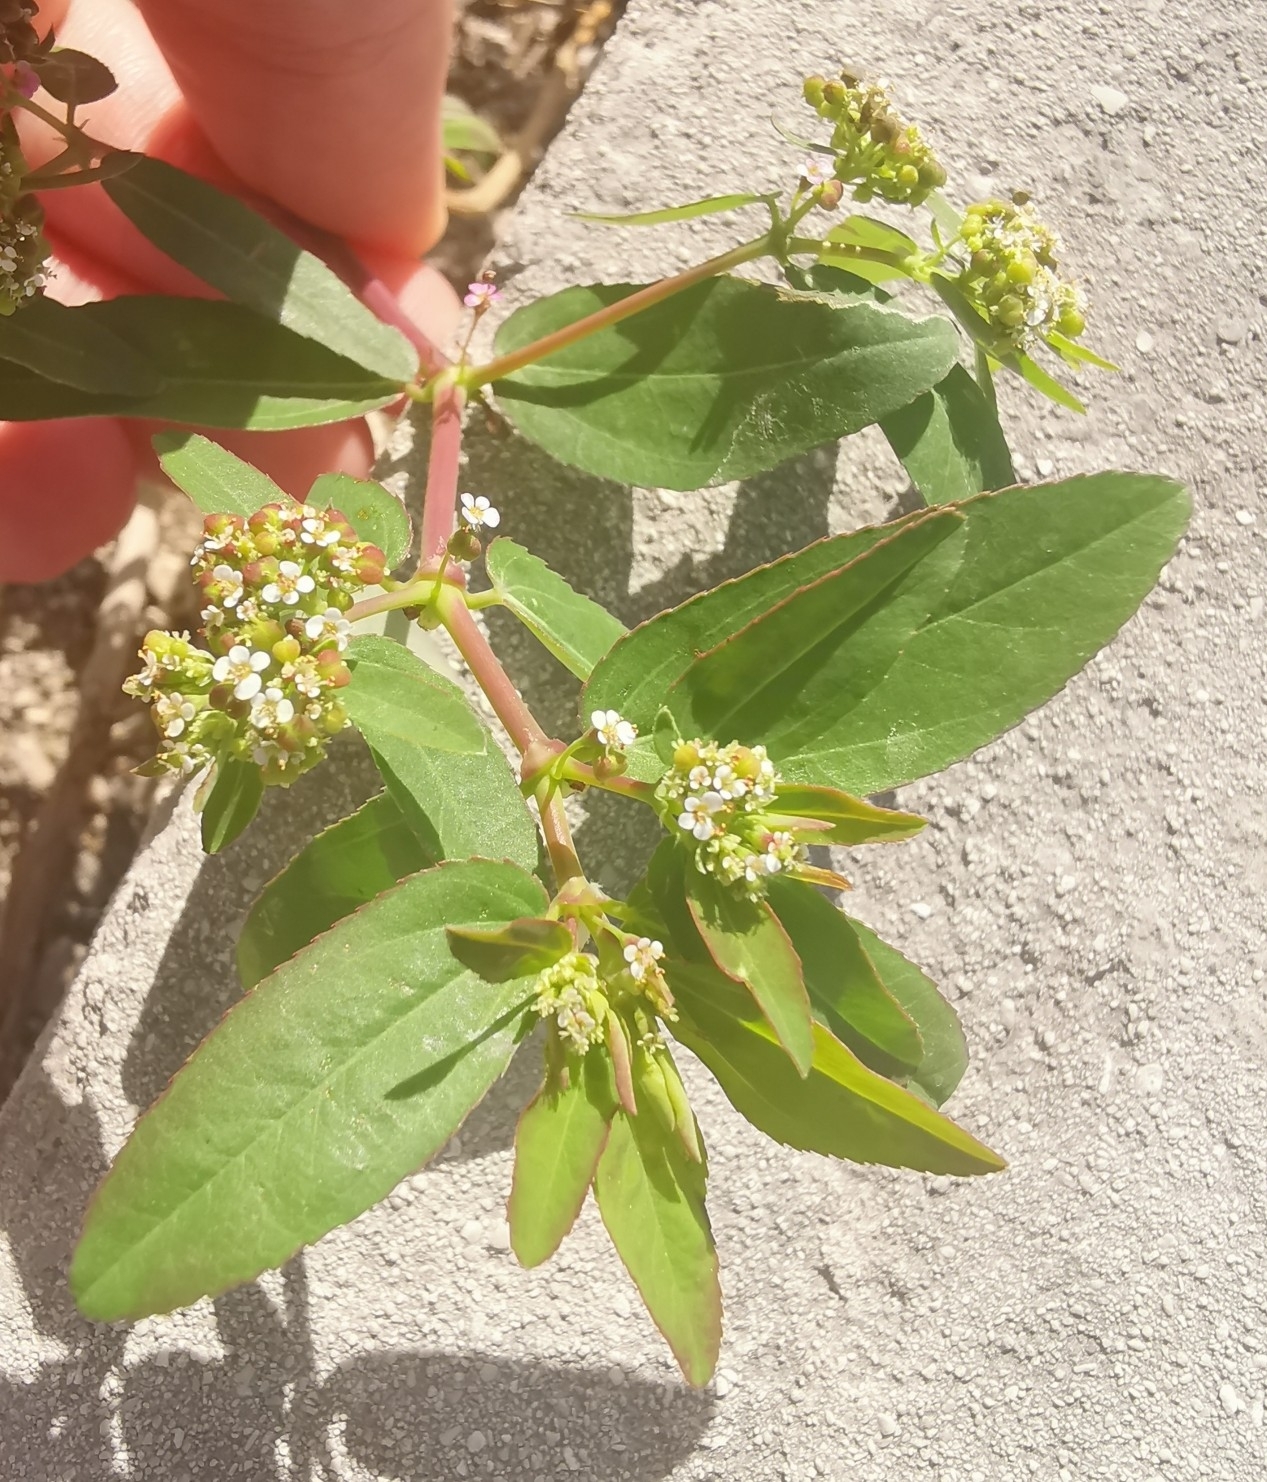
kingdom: Plantae
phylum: Tracheophyta
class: Magnoliopsida
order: Malpighiales
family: Euphorbiaceae
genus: Euphorbia
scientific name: Euphorbia hypericifolia
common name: Graceful sandmat
